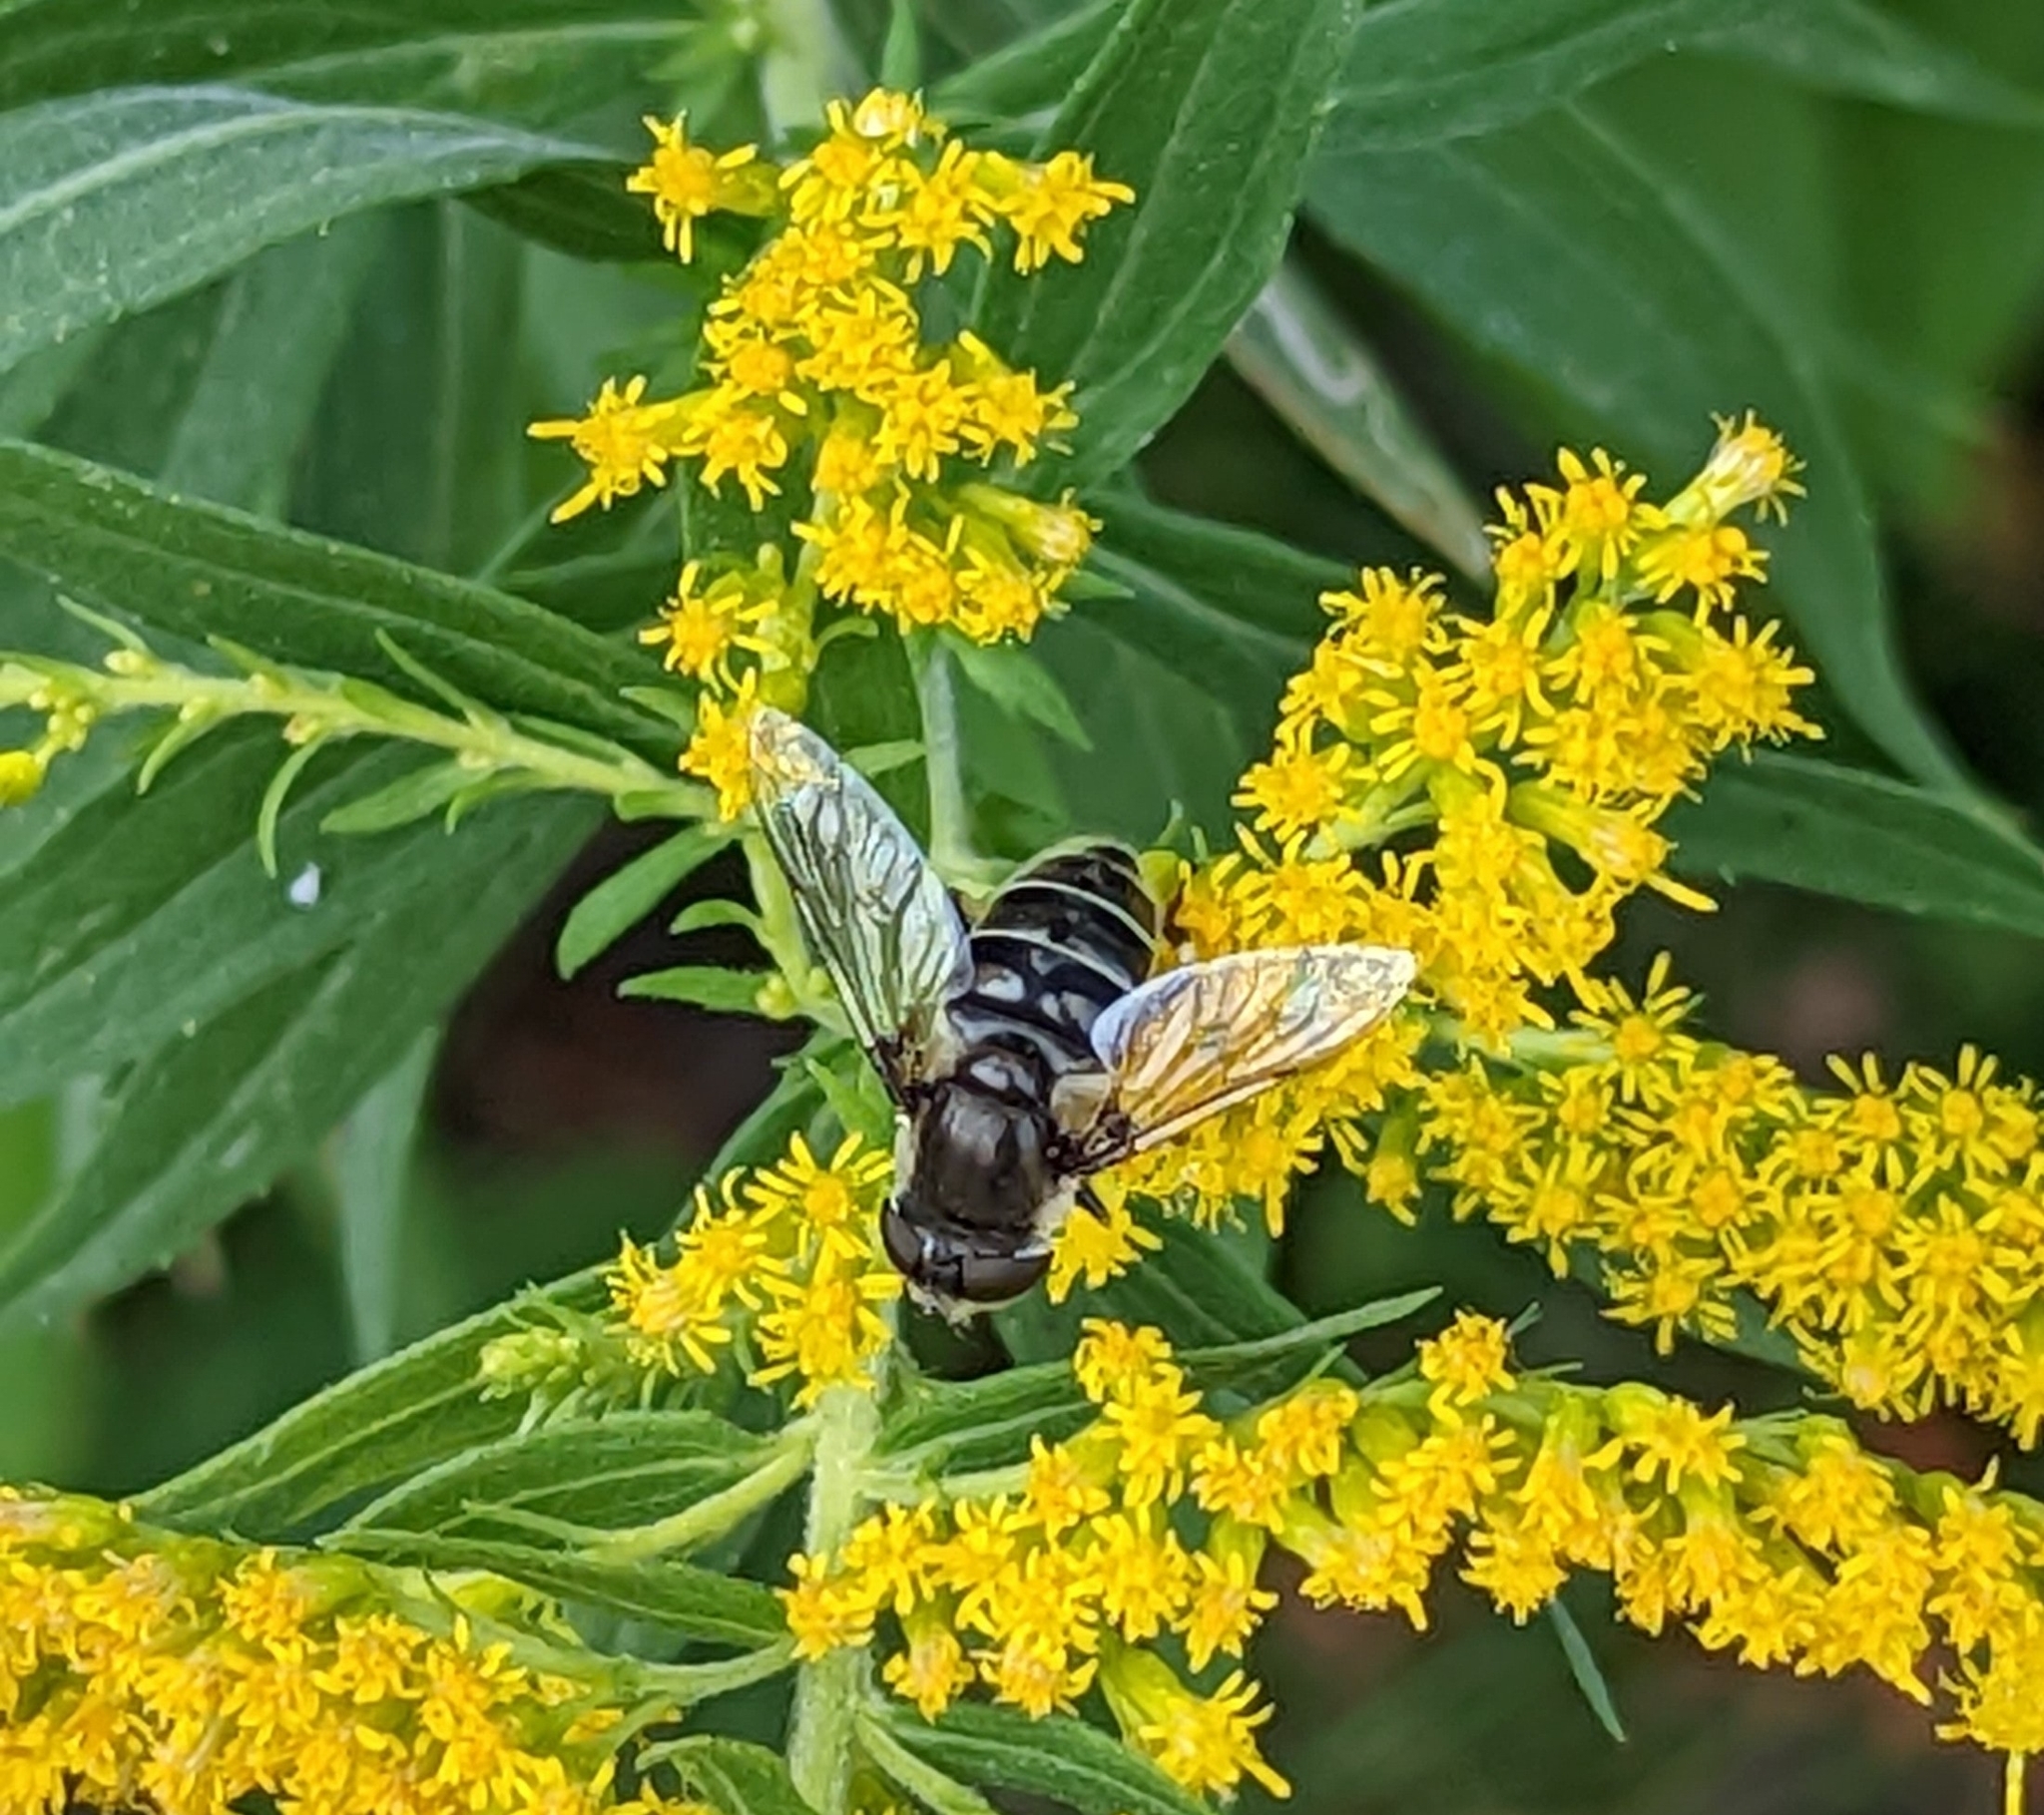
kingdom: Animalia
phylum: Arthropoda
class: Insecta
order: Diptera
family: Syrphidae
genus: Eristalis
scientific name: Eristalis dimidiata
